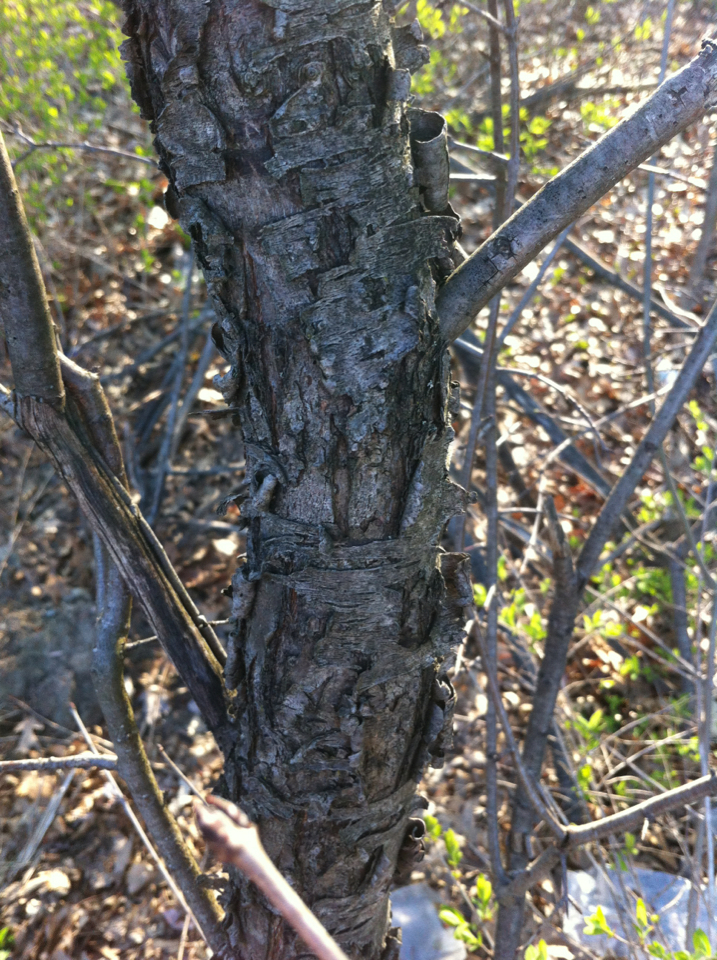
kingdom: Plantae
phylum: Tracheophyta
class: Magnoliopsida
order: Rosales
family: Rhamnaceae
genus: Rhamnus
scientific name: Rhamnus cathartica
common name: Common buckthorn
